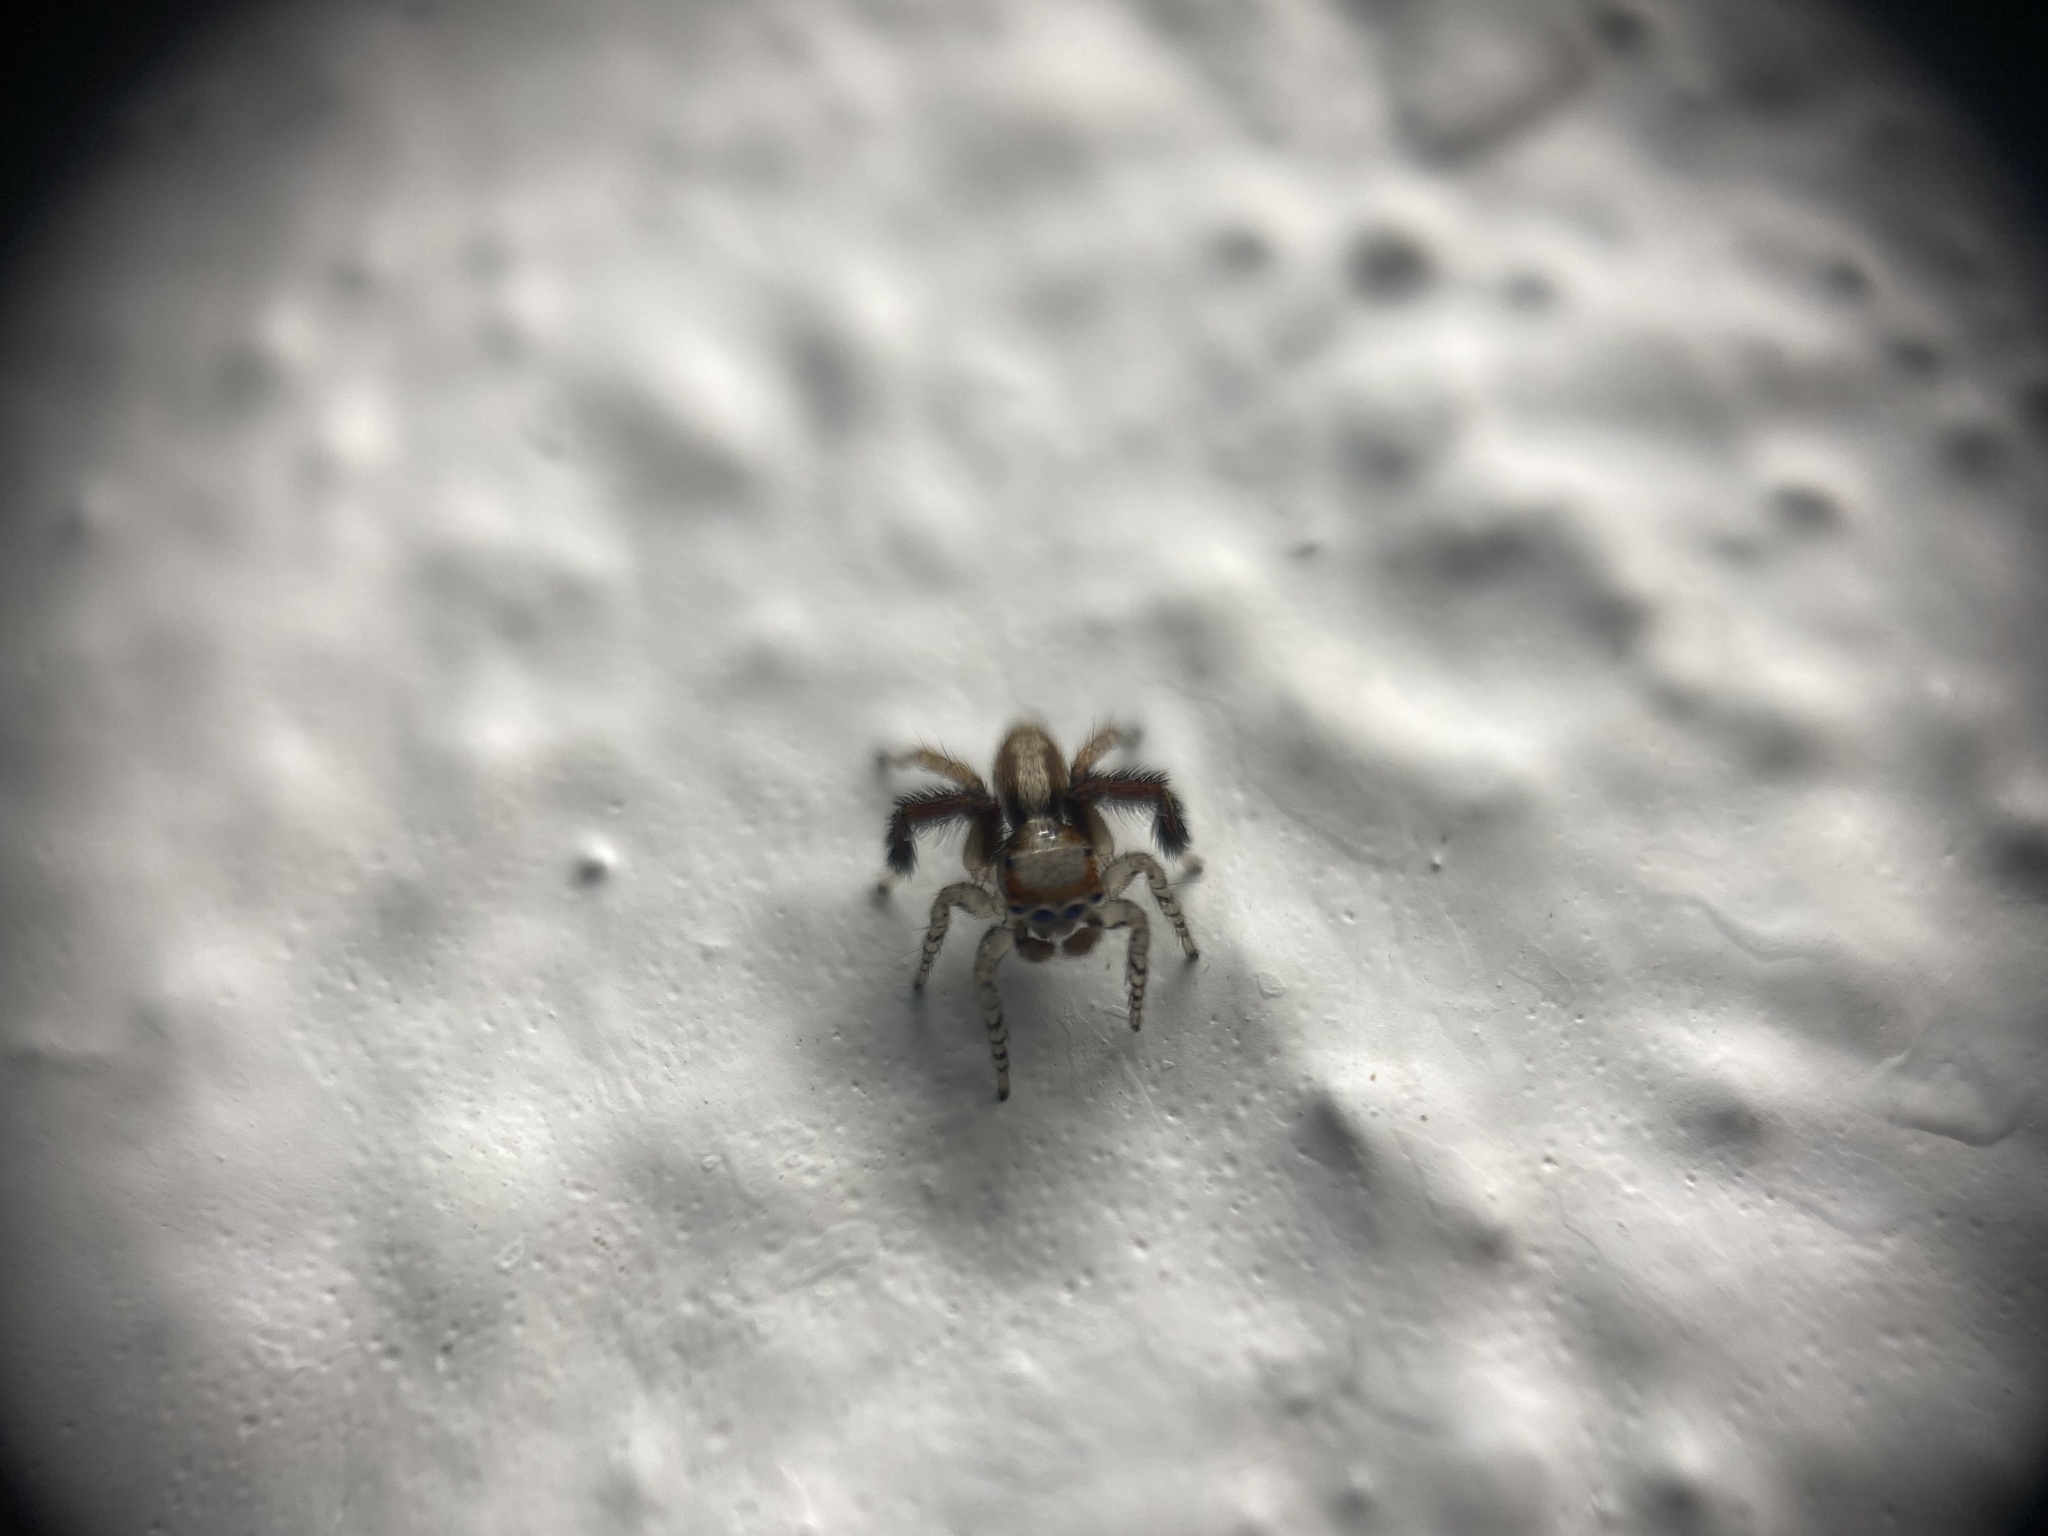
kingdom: Animalia
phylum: Arthropoda
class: Arachnida
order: Araneae
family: Salticidae
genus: Saitis
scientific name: Saitis barbipes
